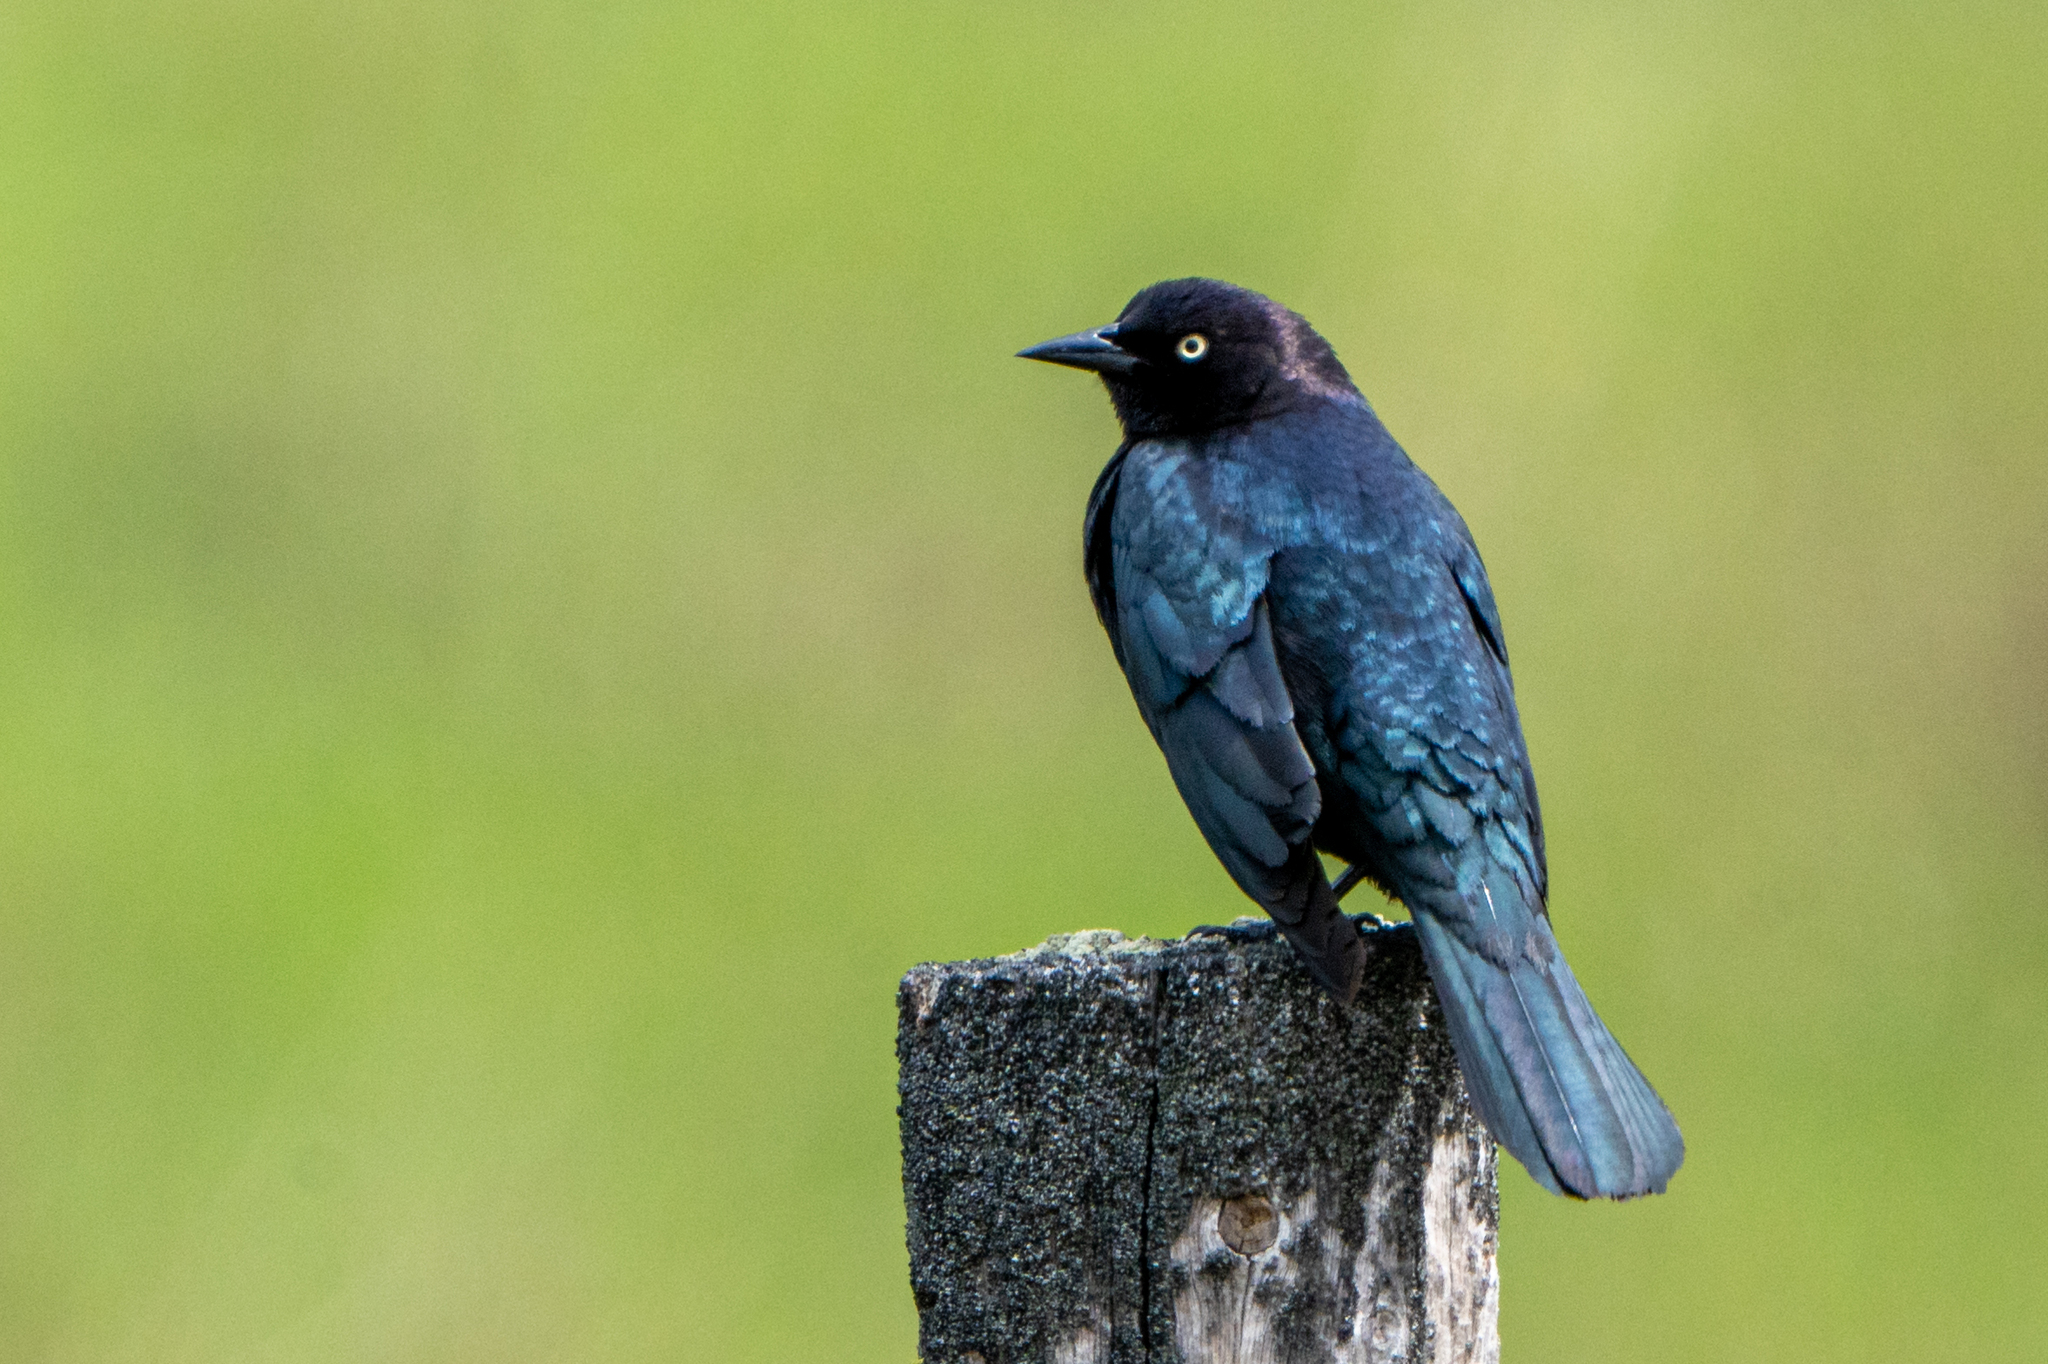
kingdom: Animalia
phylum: Chordata
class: Aves
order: Passeriformes
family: Icteridae
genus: Euphagus
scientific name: Euphagus cyanocephalus
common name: Brewer's blackbird
